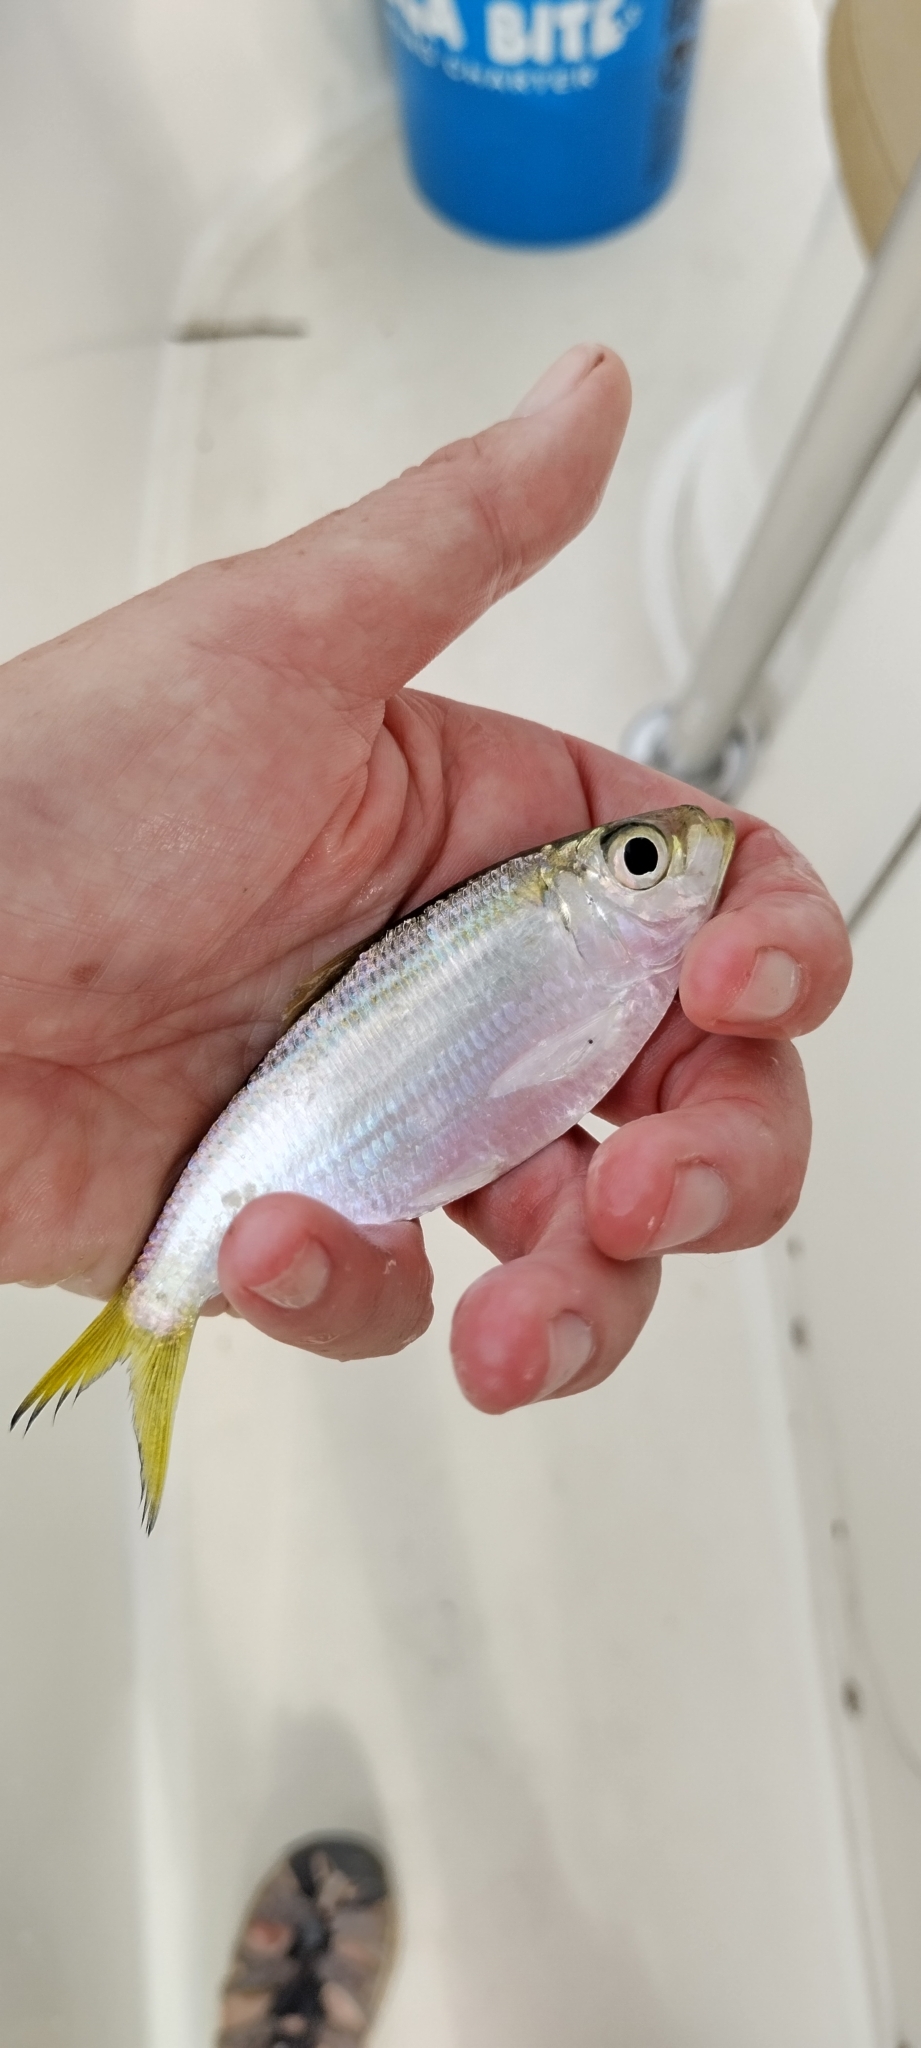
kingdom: Animalia
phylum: Chordata
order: Clupeiformes
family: Clupeidae
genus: Harengula
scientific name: Harengula jaguana
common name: Scaled sardine
